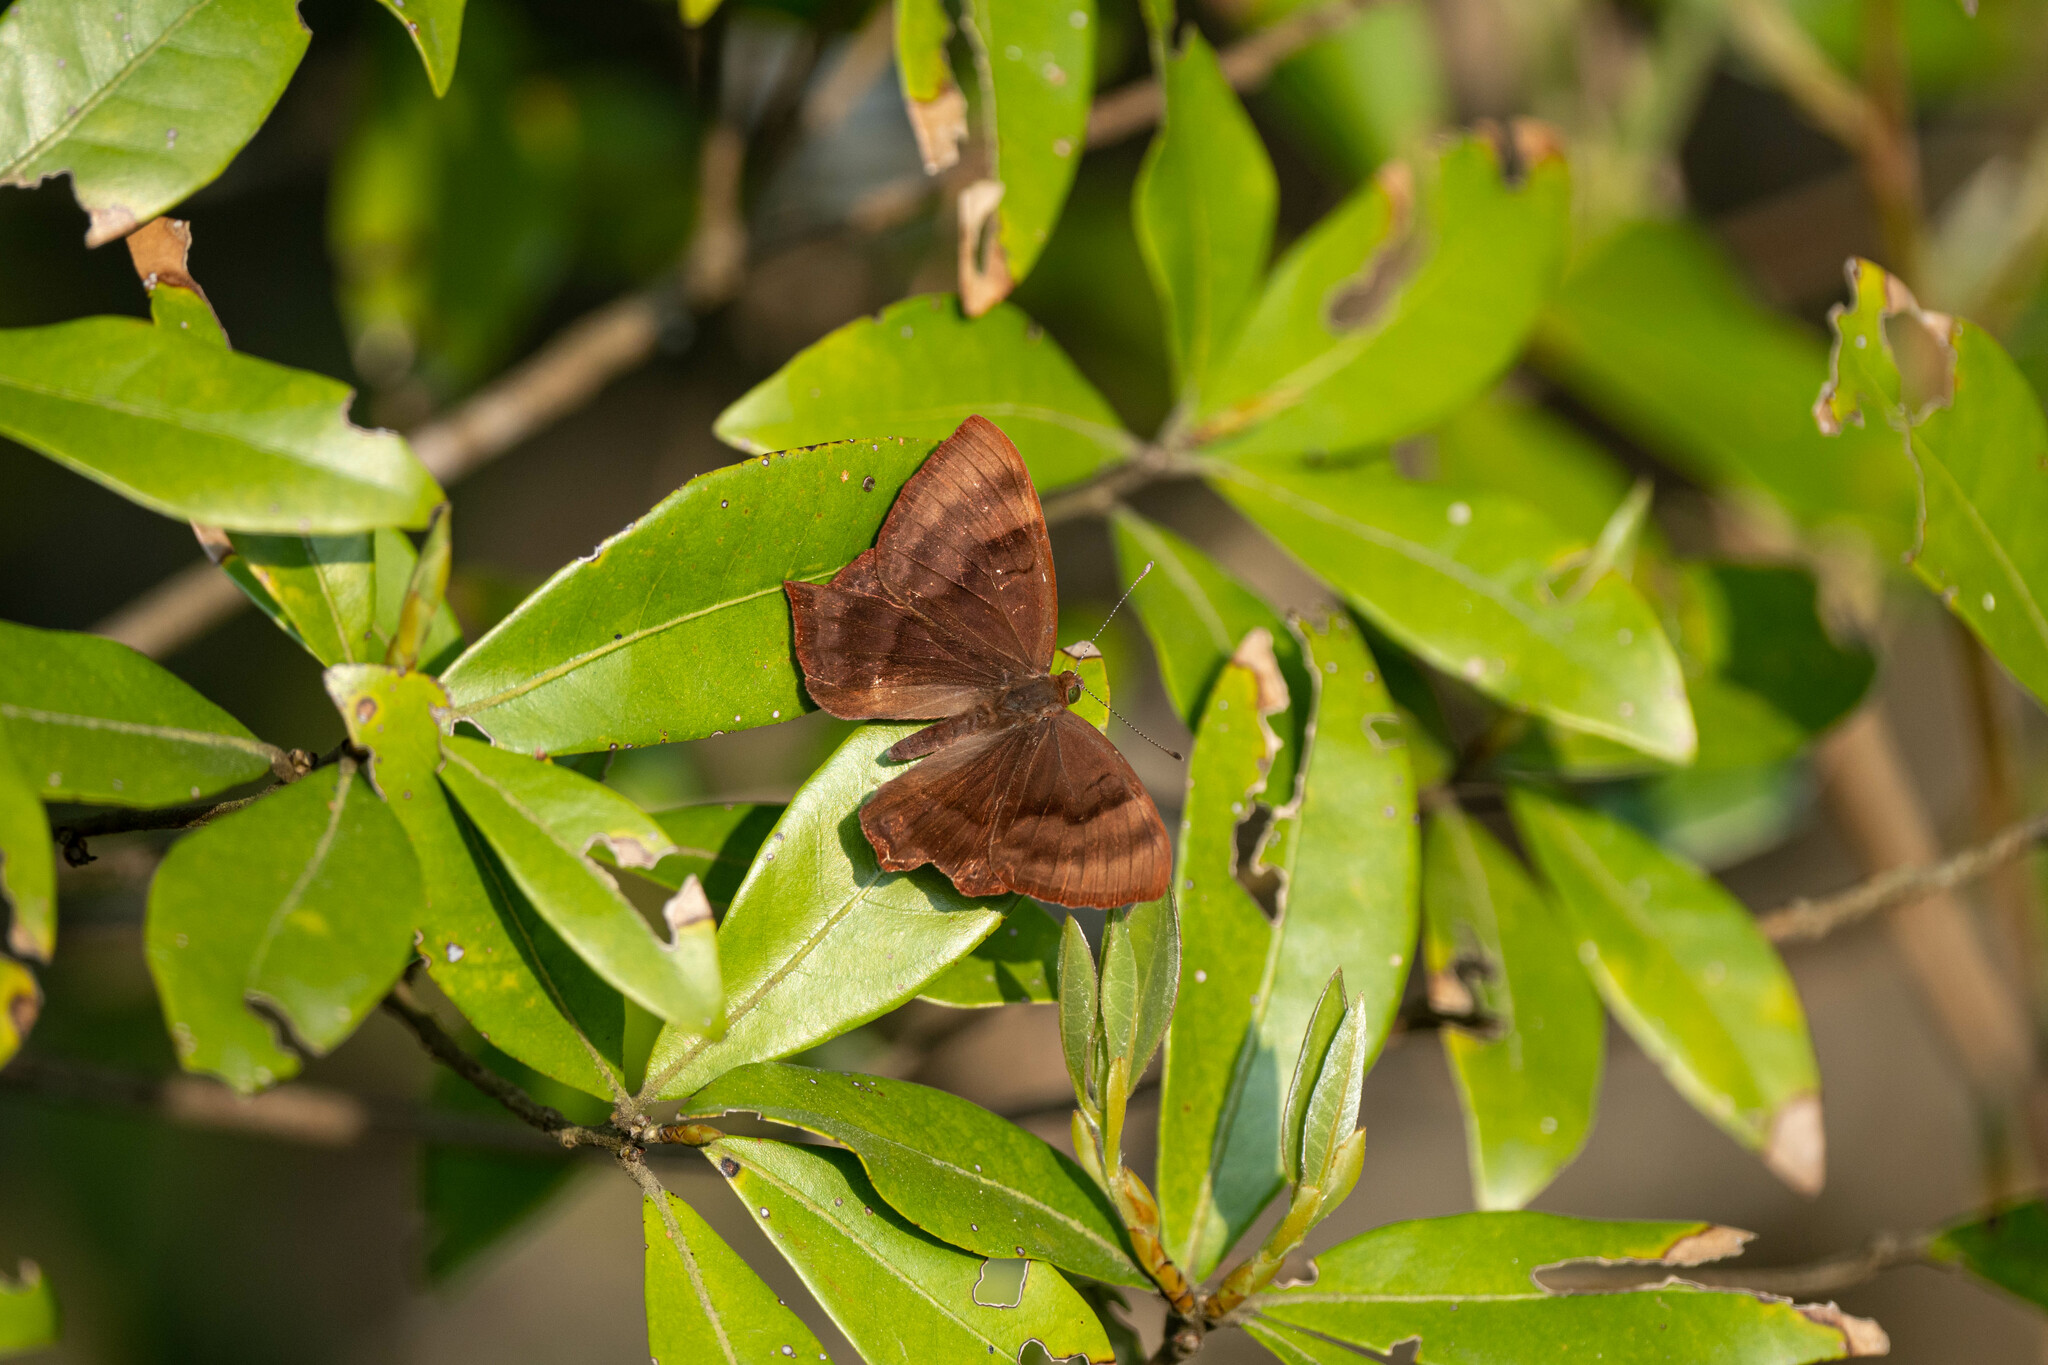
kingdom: Animalia
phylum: Arthropoda
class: Insecta
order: Lepidoptera
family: Lycaenidae
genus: Abisara
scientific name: Abisara echeria
